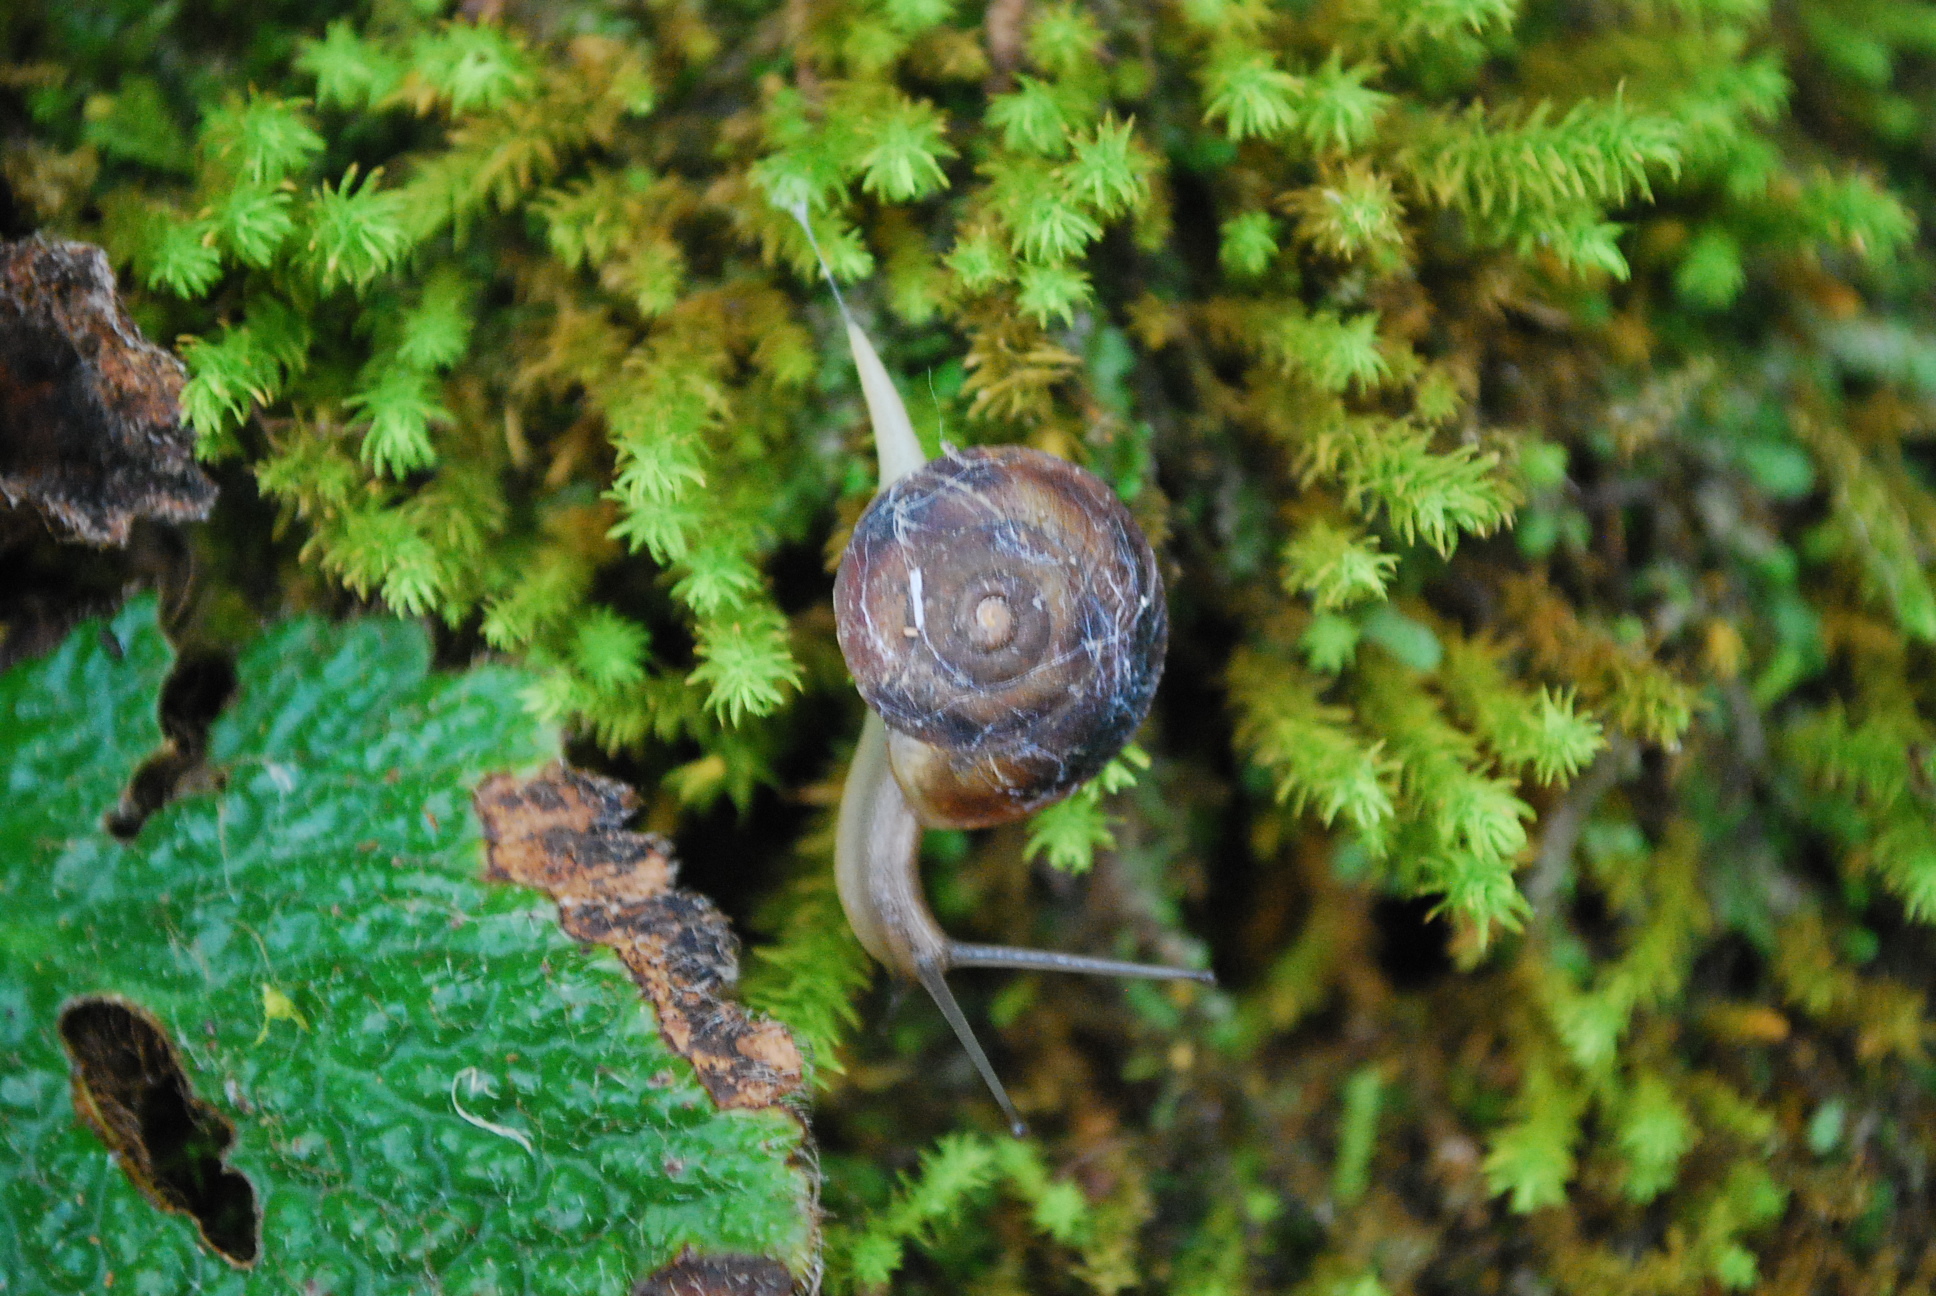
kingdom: Animalia
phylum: Mollusca
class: Gastropoda
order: Stylommatophora
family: Helicidae
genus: Helicigona
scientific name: Helicigona lapicida
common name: Lapidary snail
